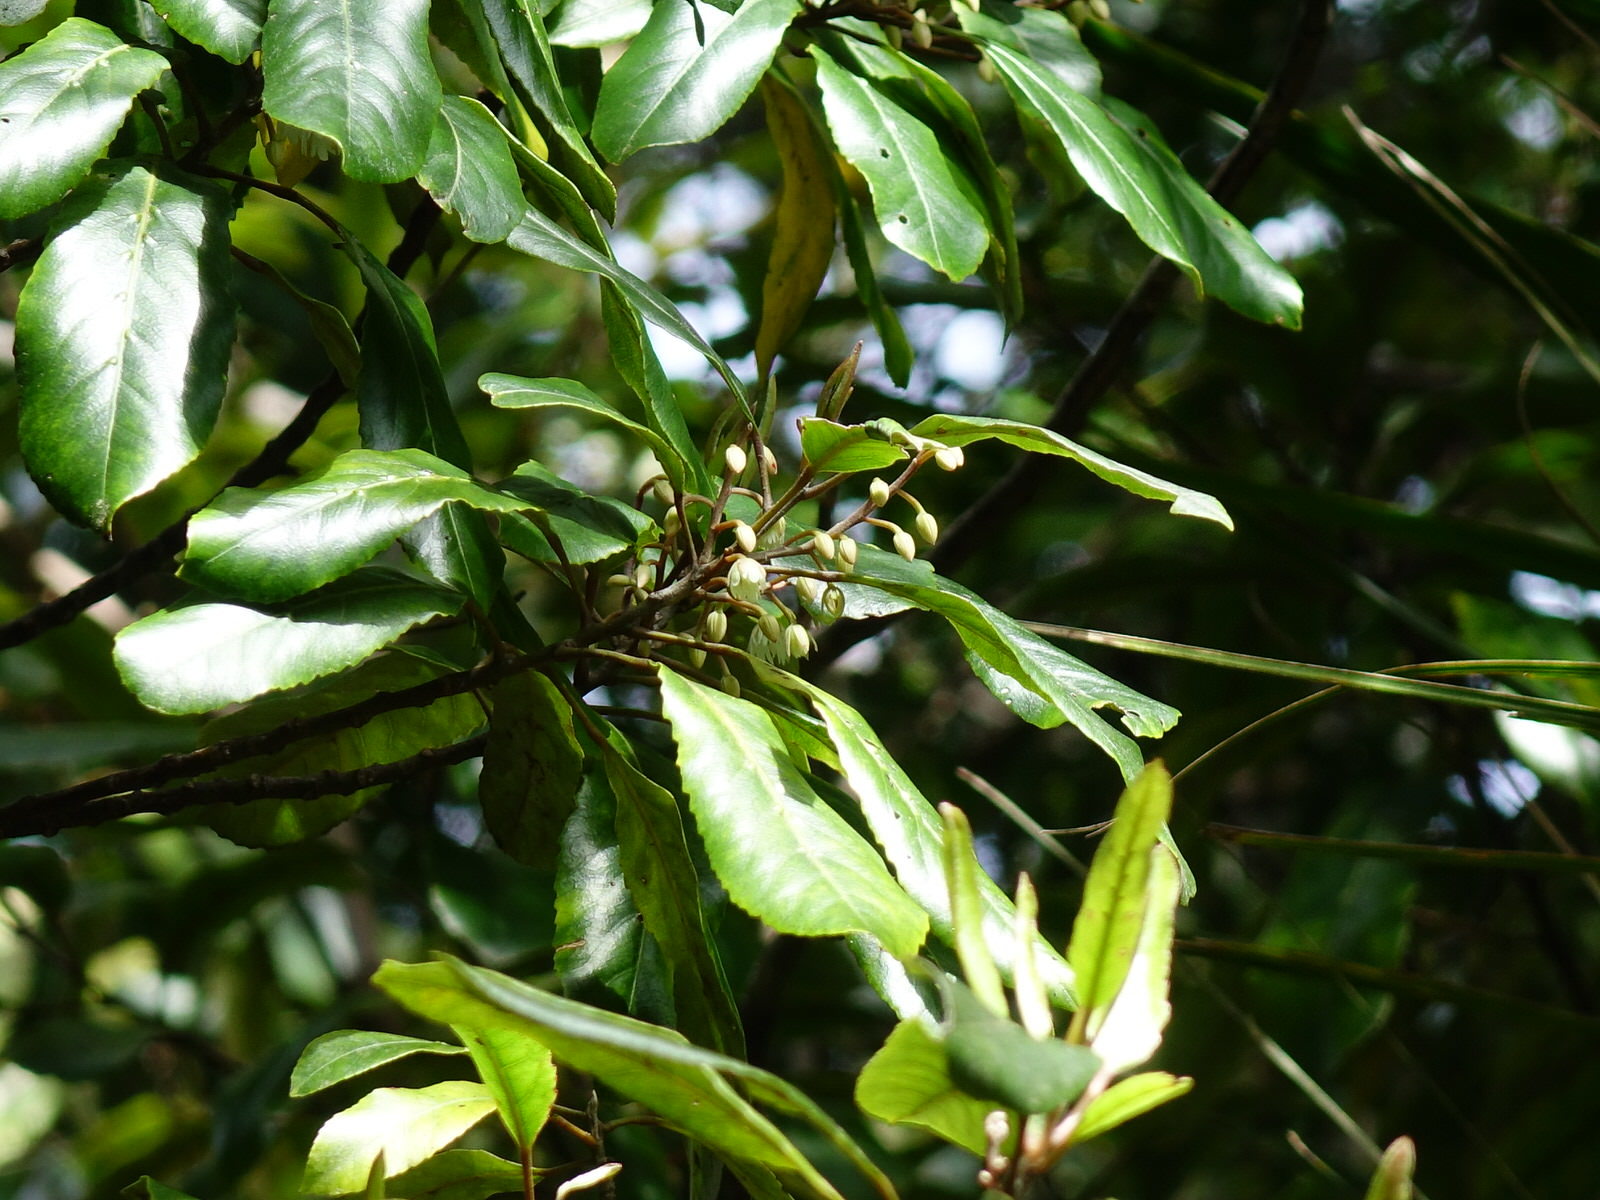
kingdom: Plantae
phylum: Tracheophyta
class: Magnoliopsida
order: Oxalidales
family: Elaeocarpaceae
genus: Elaeocarpus
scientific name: Elaeocarpus dentatus
